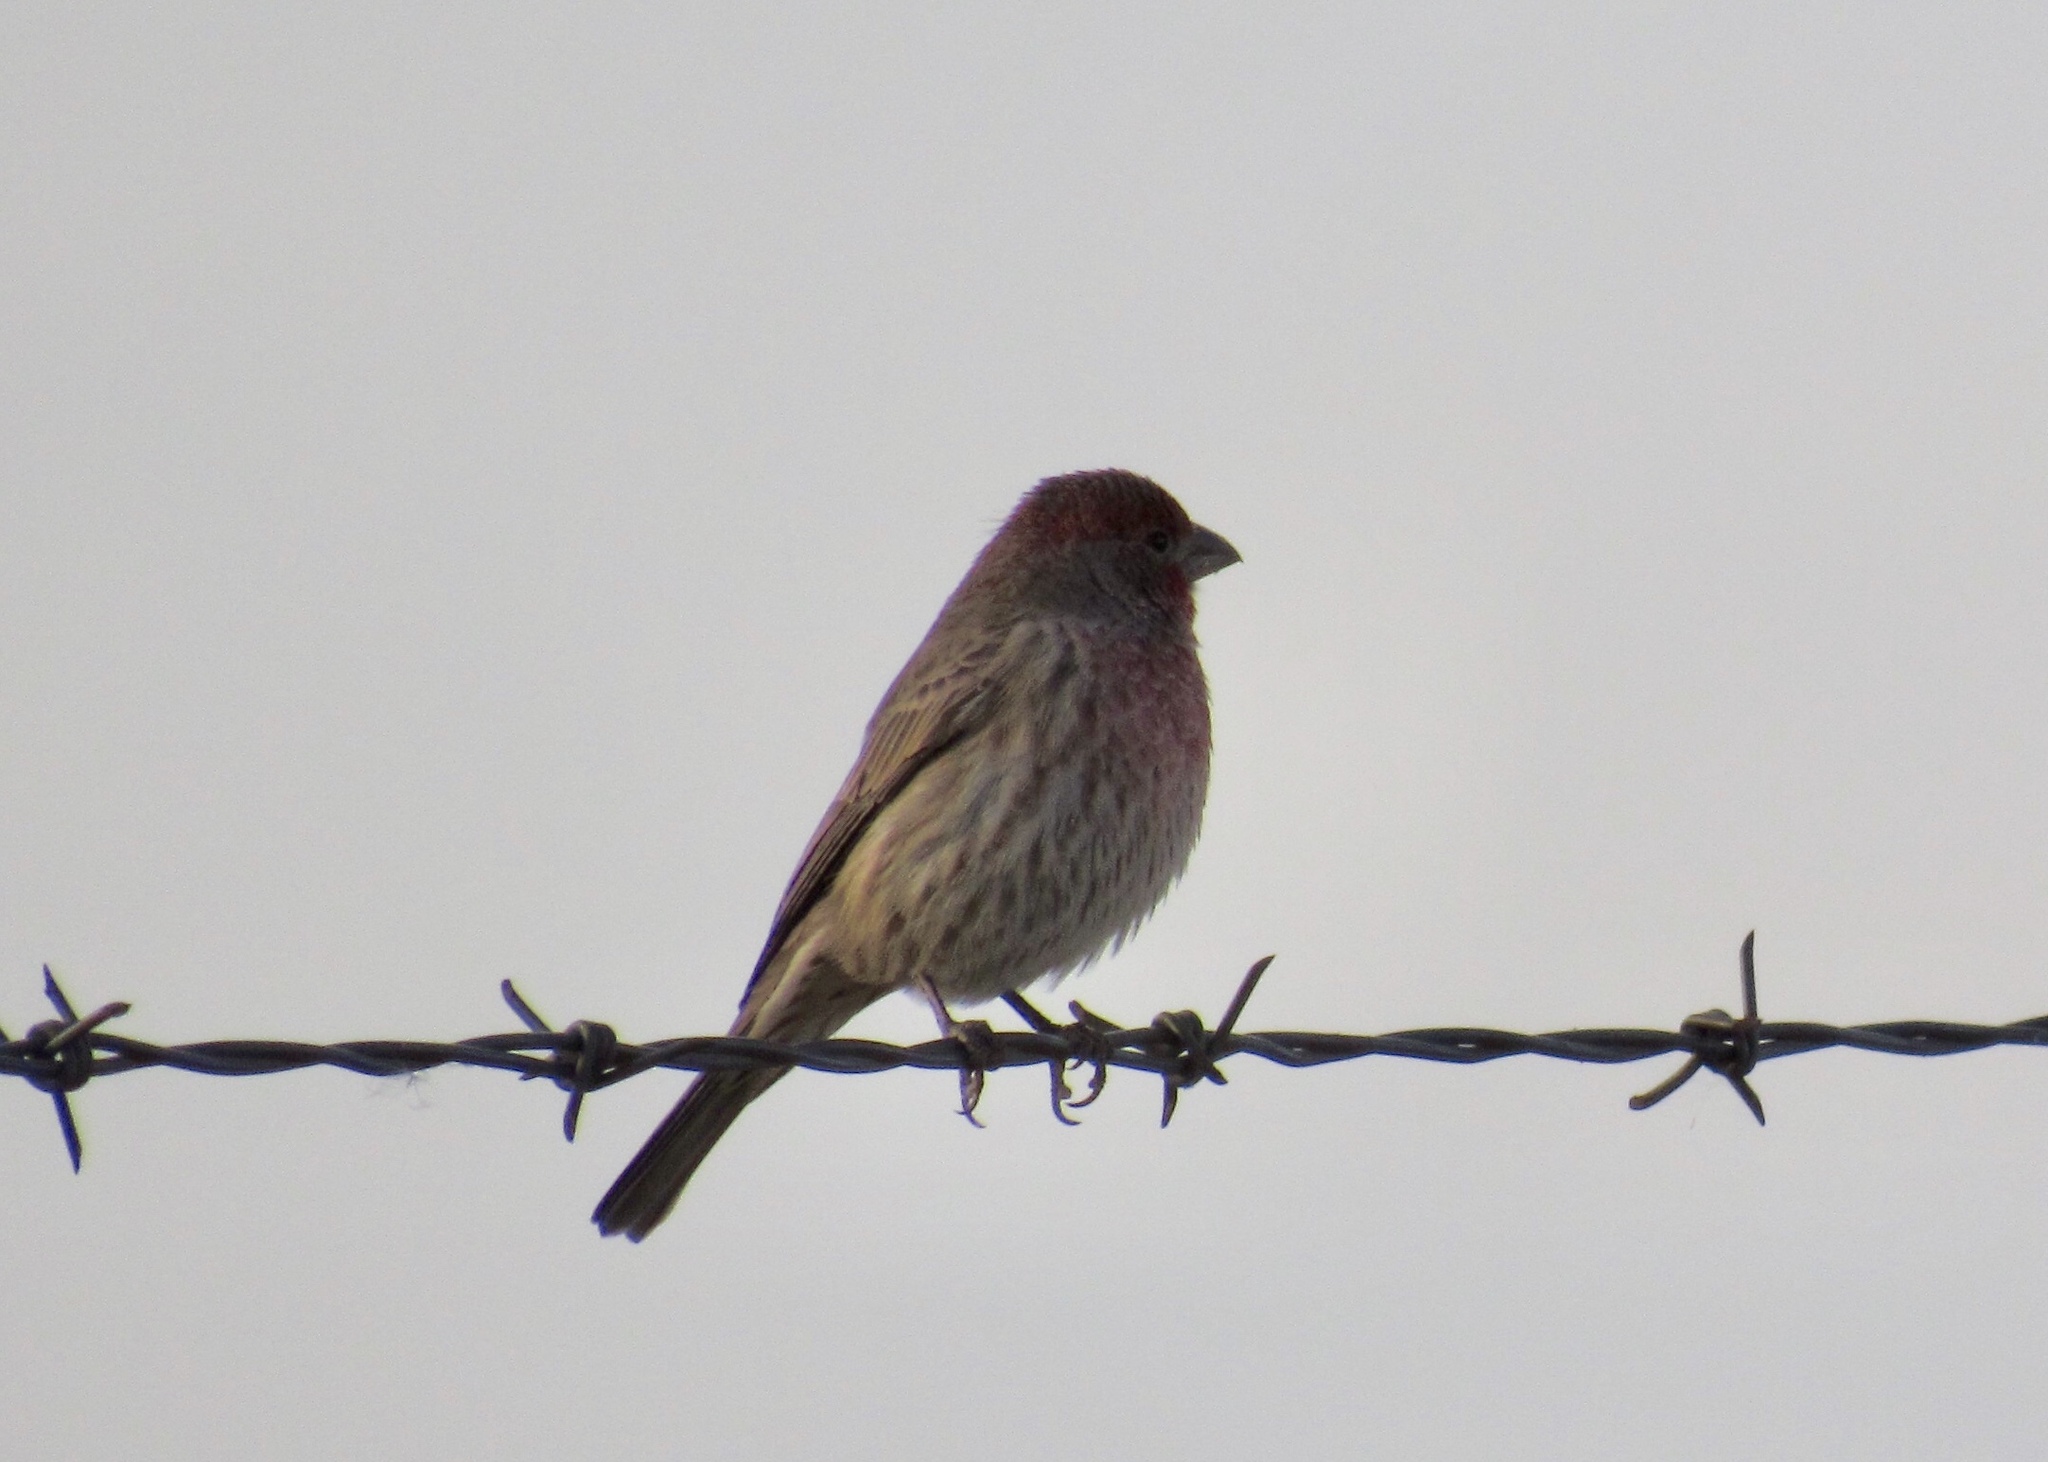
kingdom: Animalia
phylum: Chordata
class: Aves
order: Passeriformes
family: Fringillidae
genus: Haemorhous
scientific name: Haemorhous mexicanus
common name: House finch
